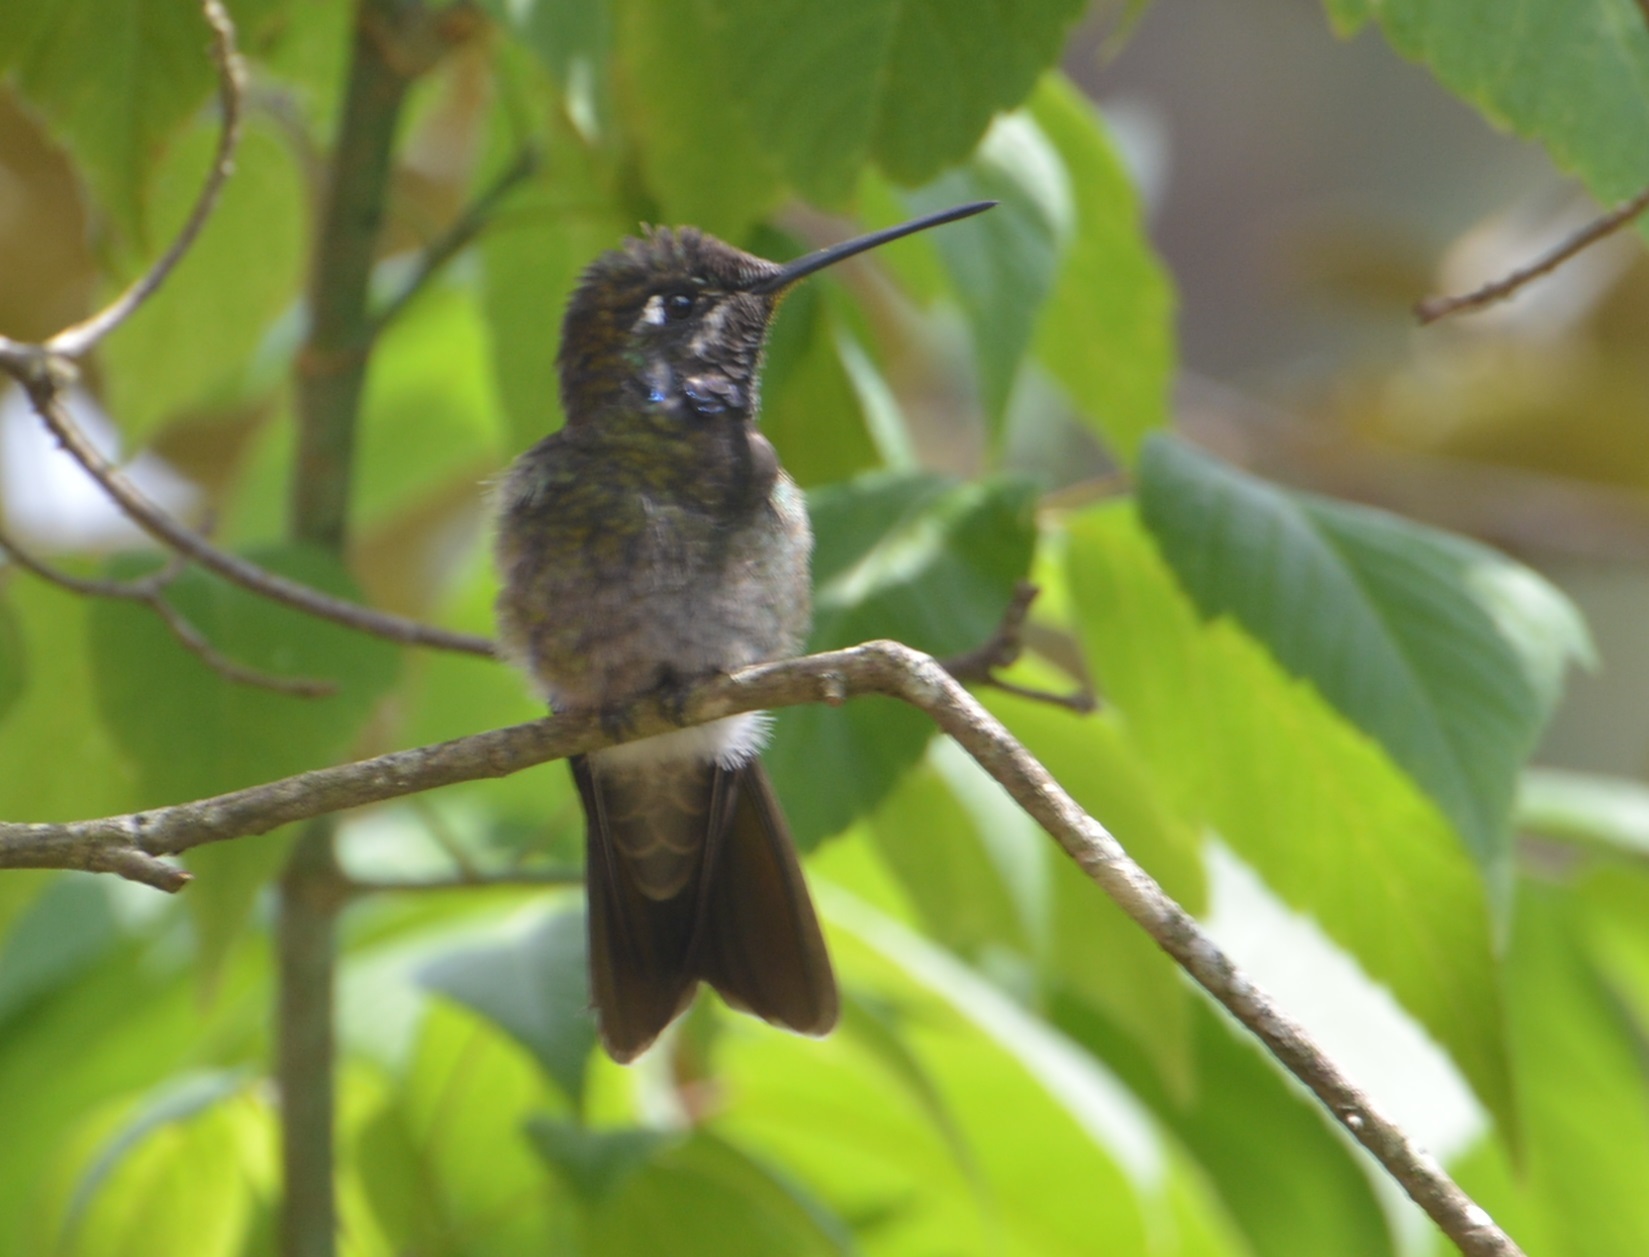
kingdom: Animalia
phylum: Chordata
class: Aves
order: Apodiformes
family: Trochilidae
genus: Eugenes
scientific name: Eugenes fulgens
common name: Magnificent hummingbird
